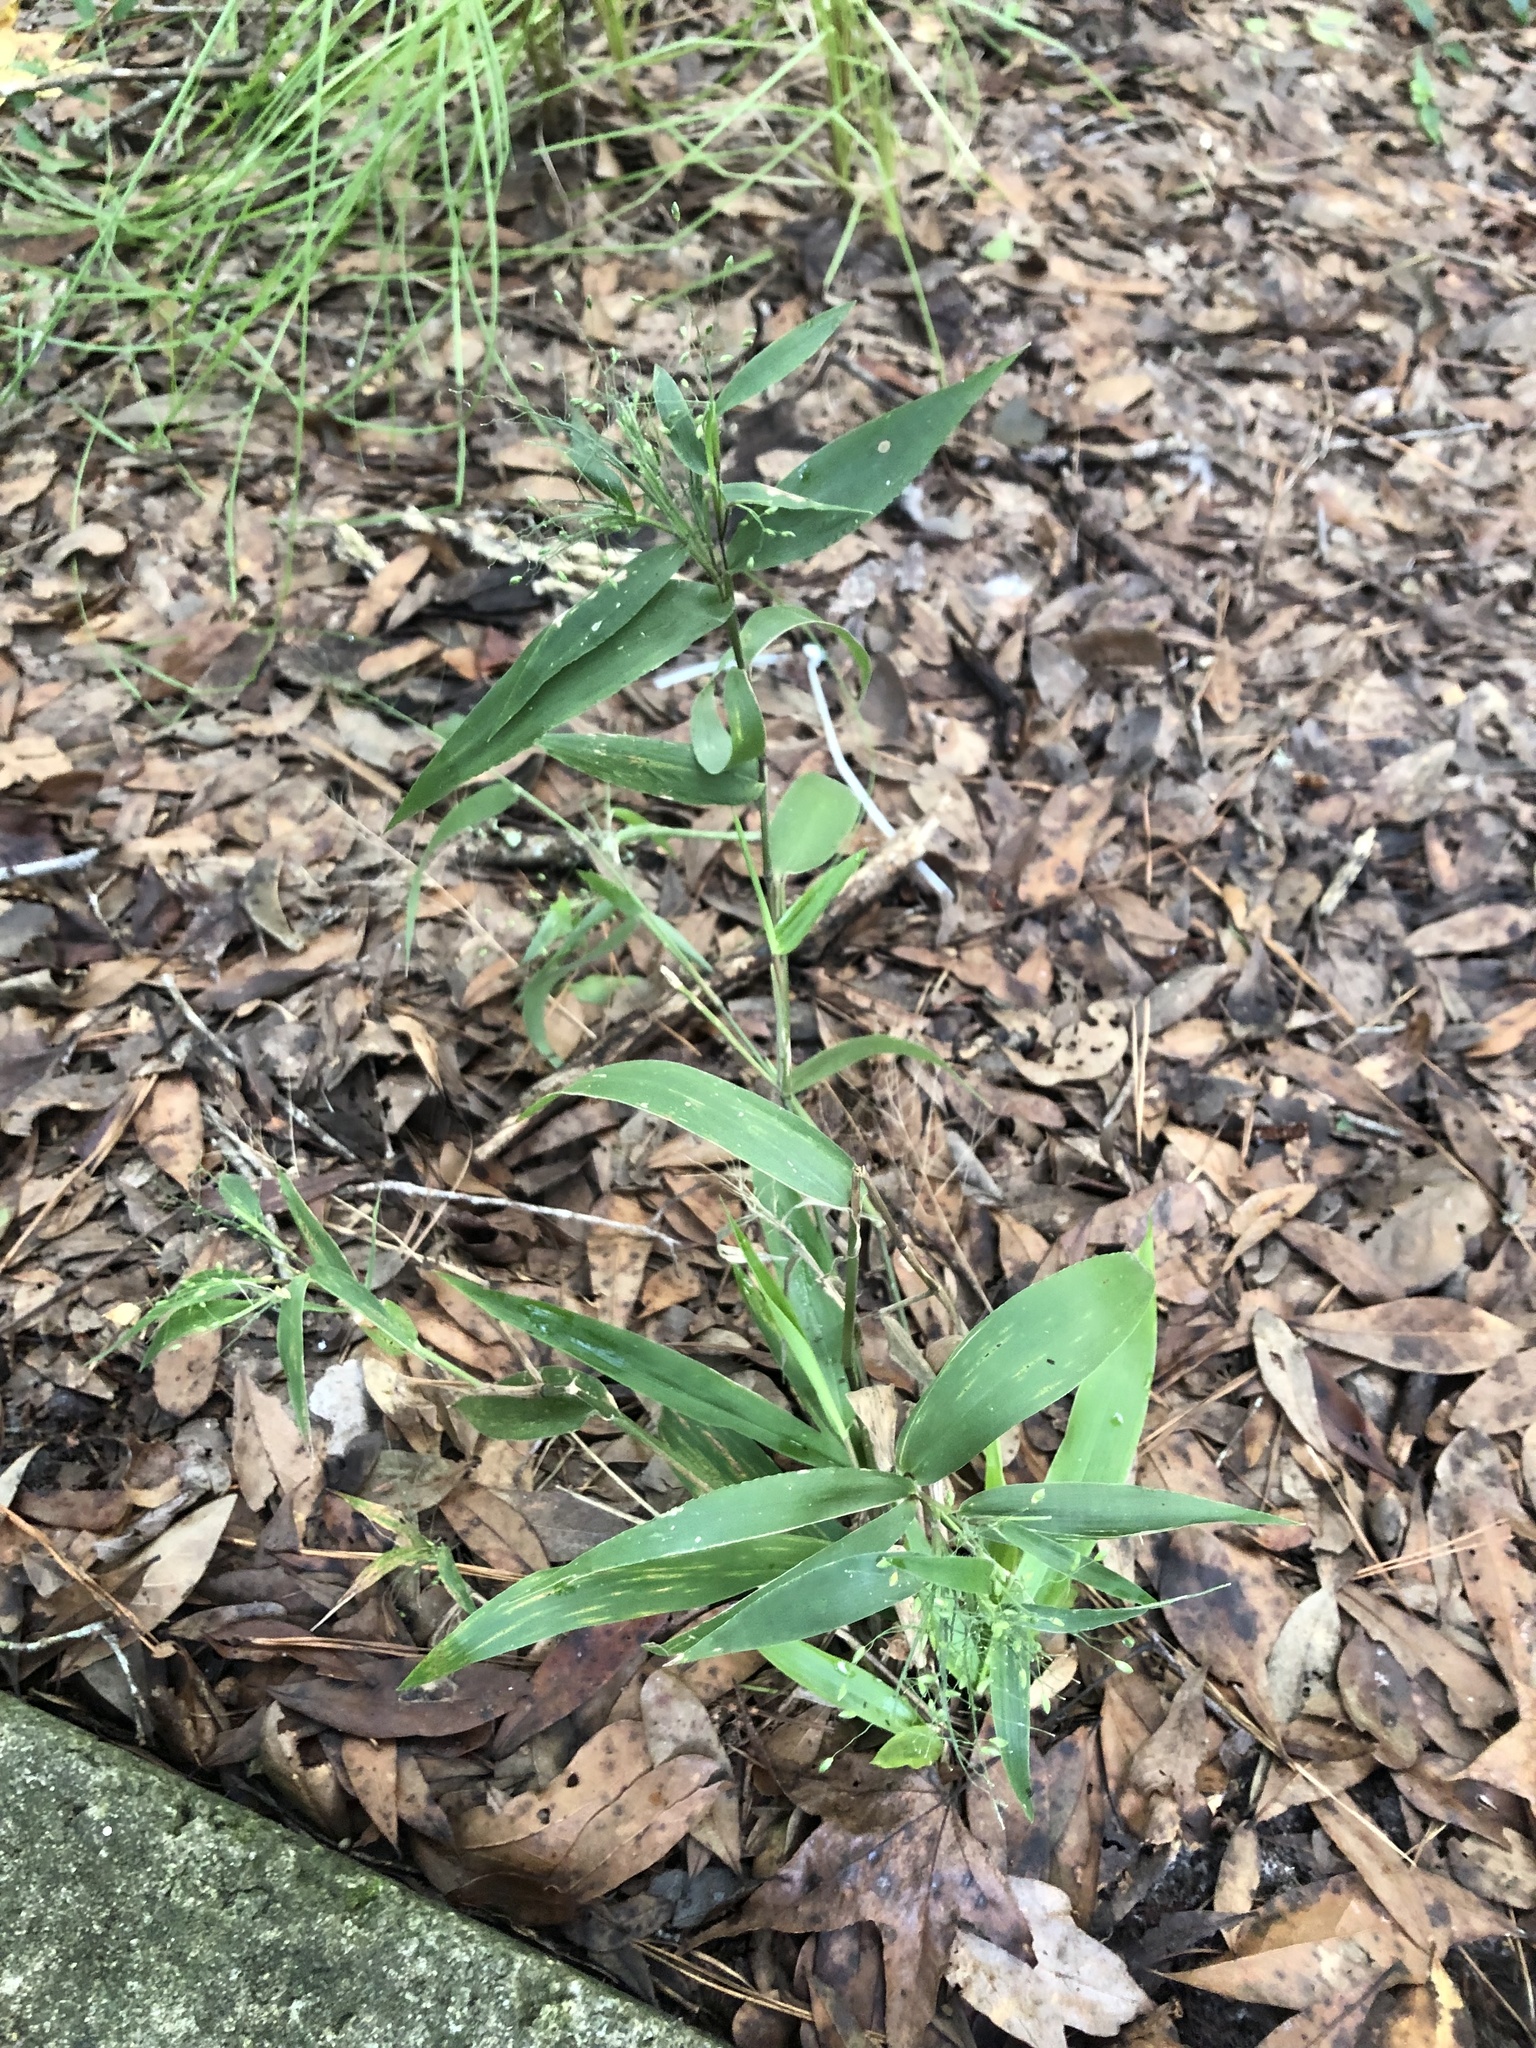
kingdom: Plantae
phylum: Tracheophyta
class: Liliopsida
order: Poales
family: Poaceae
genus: Dichanthelium
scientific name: Dichanthelium commutatum
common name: Variable witchgrass
